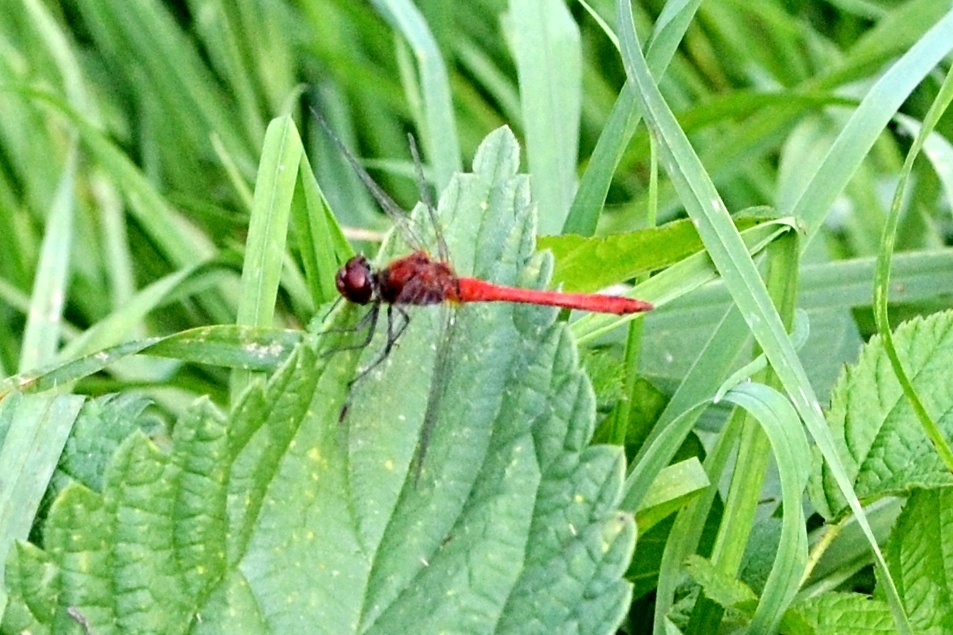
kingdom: Animalia
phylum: Arthropoda
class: Insecta
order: Odonata
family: Libellulidae
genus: Sympetrum
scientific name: Sympetrum sanguineum
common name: Ruddy darter
